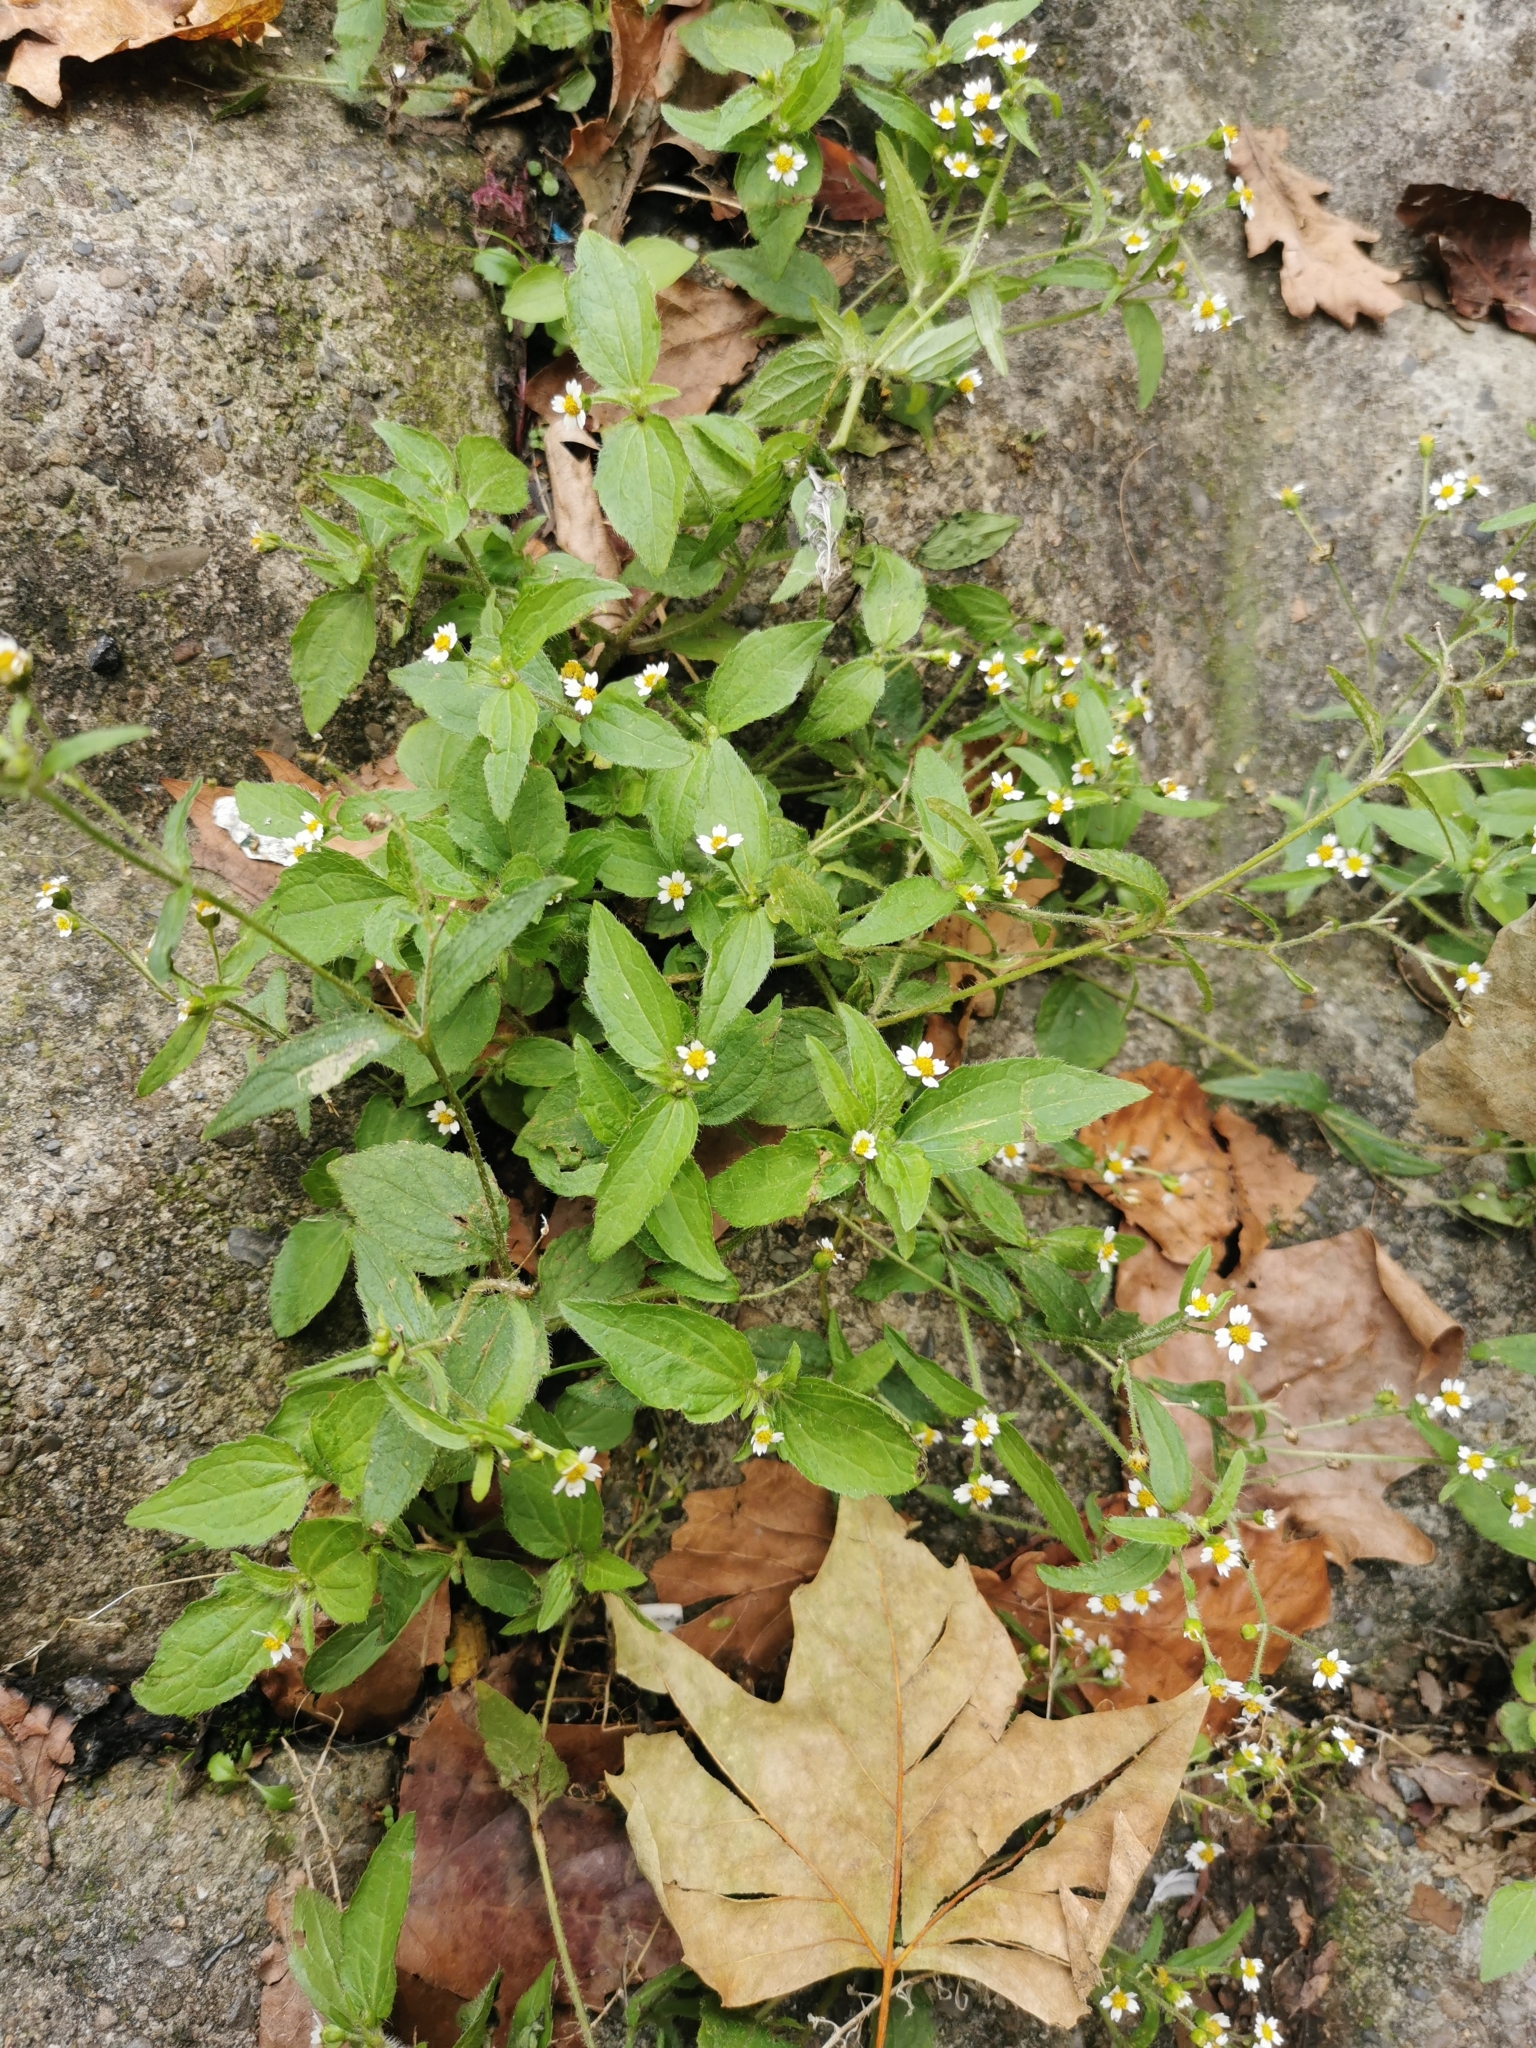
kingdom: Plantae
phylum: Tracheophyta
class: Magnoliopsida
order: Asterales
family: Asteraceae
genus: Galinsoga
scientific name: Galinsoga quadriradiata
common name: Shaggy soldier
